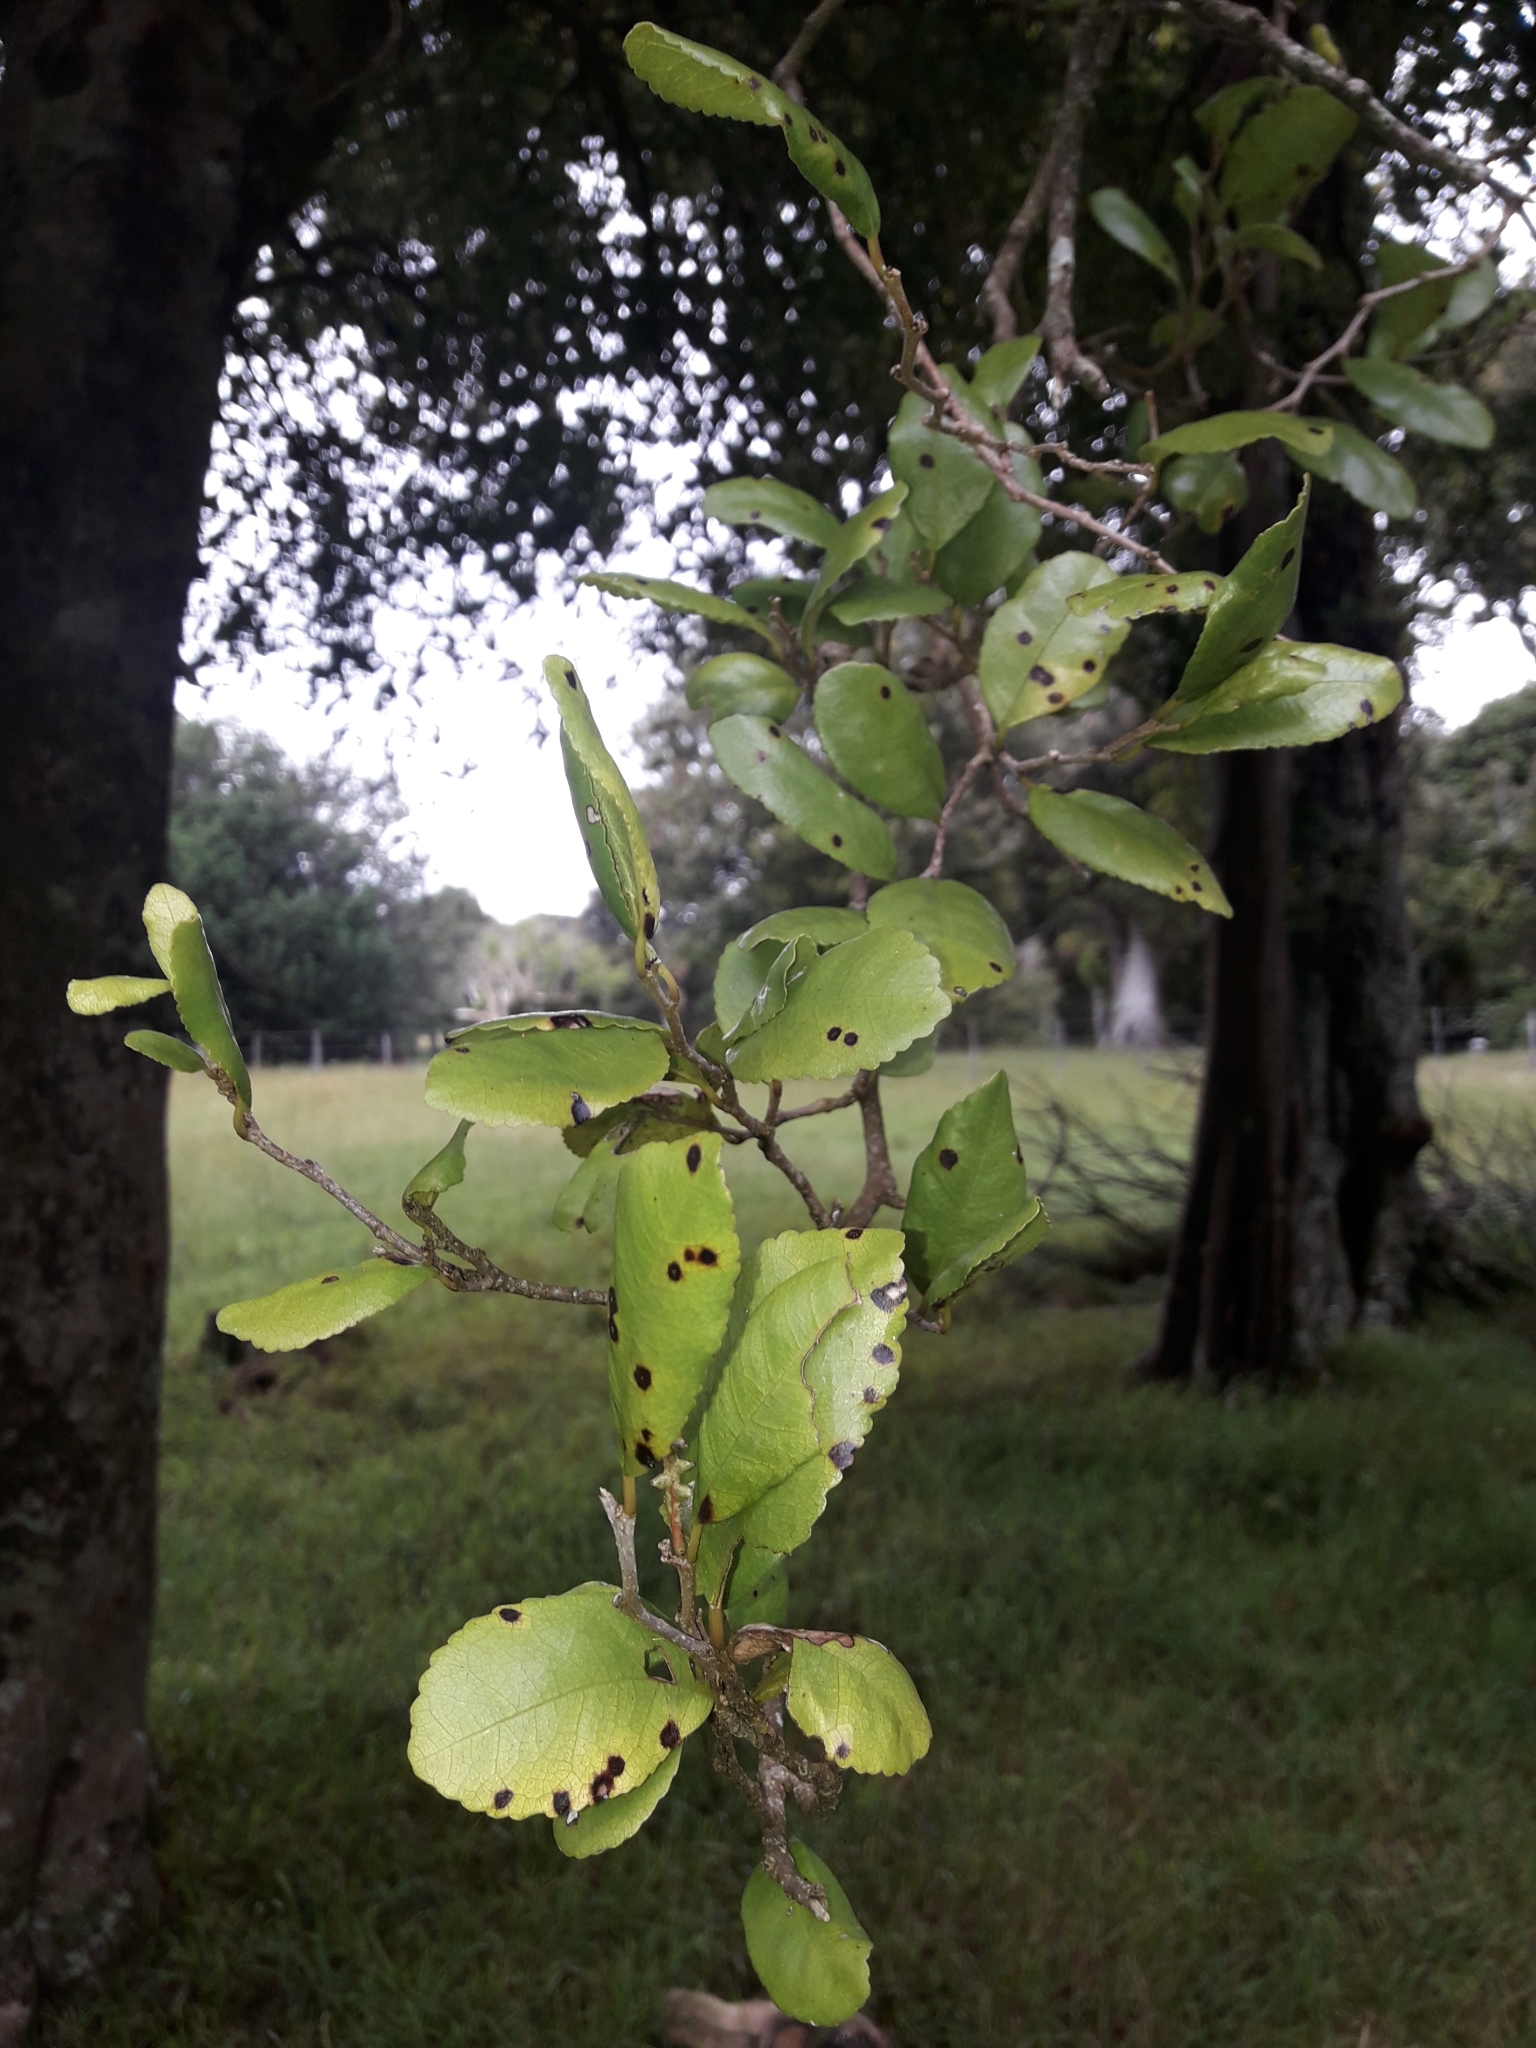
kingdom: Plantae
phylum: Tracheophyta
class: Magnoliopsida
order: Rosales
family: Moraceae
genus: Paratrophis
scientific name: Paratrophis banksii
